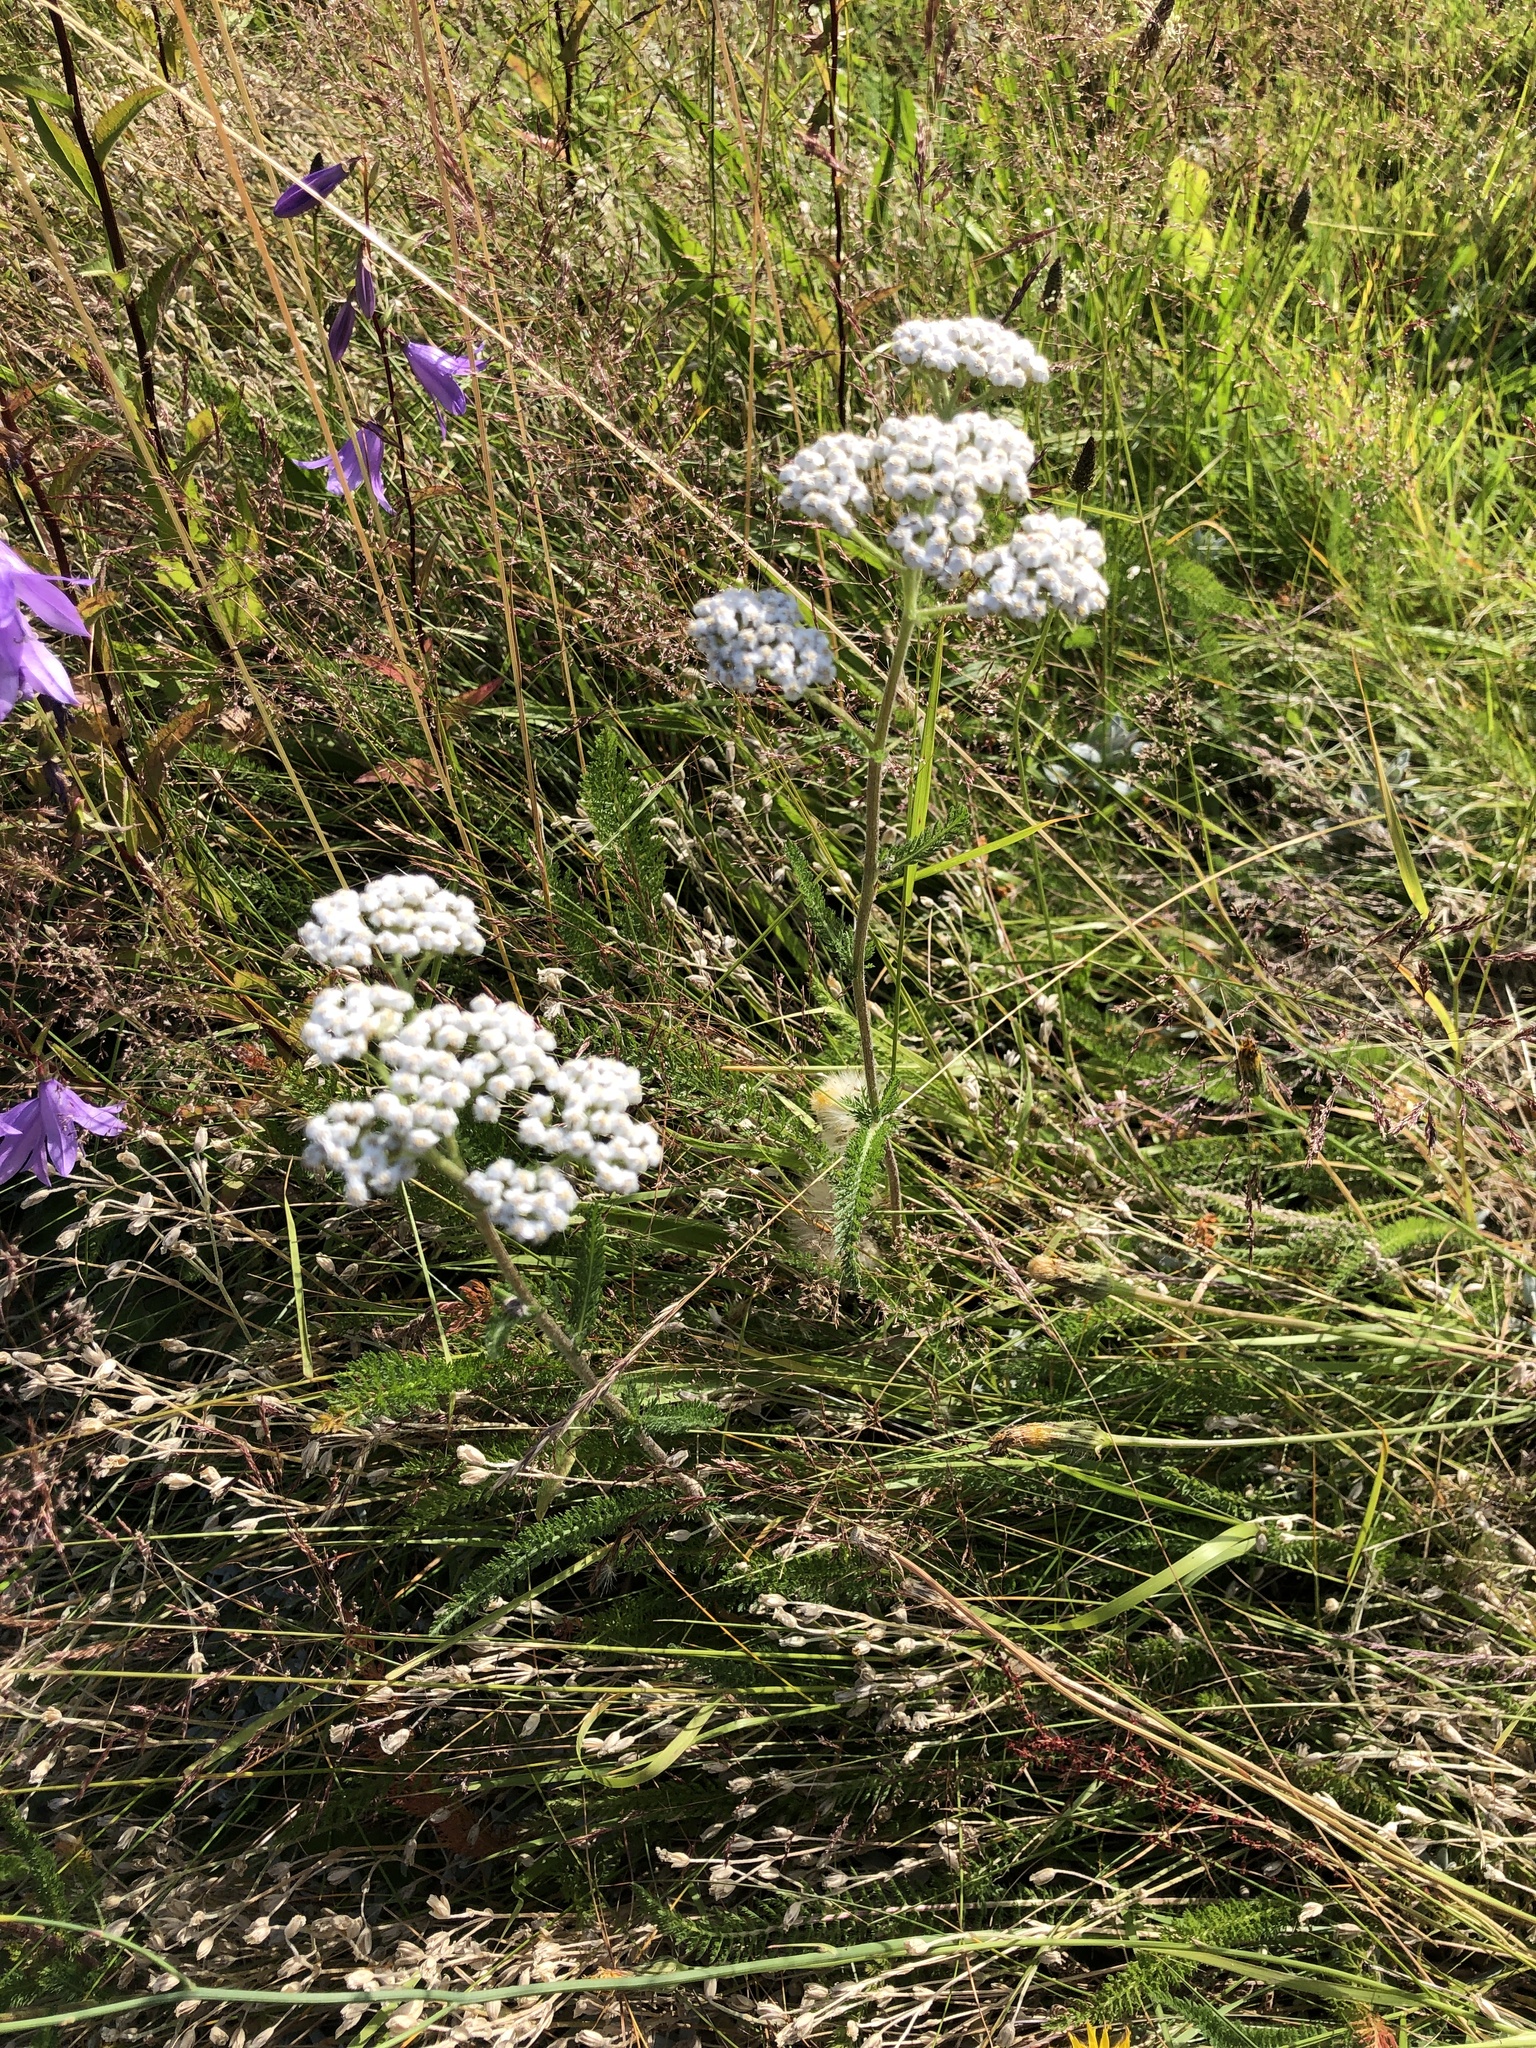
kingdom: Plantae
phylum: Tracheophyta
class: Magnoliopsida
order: Asterales
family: Asteraceae
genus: Achillea
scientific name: Achillea millefolium
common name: Yarrow
